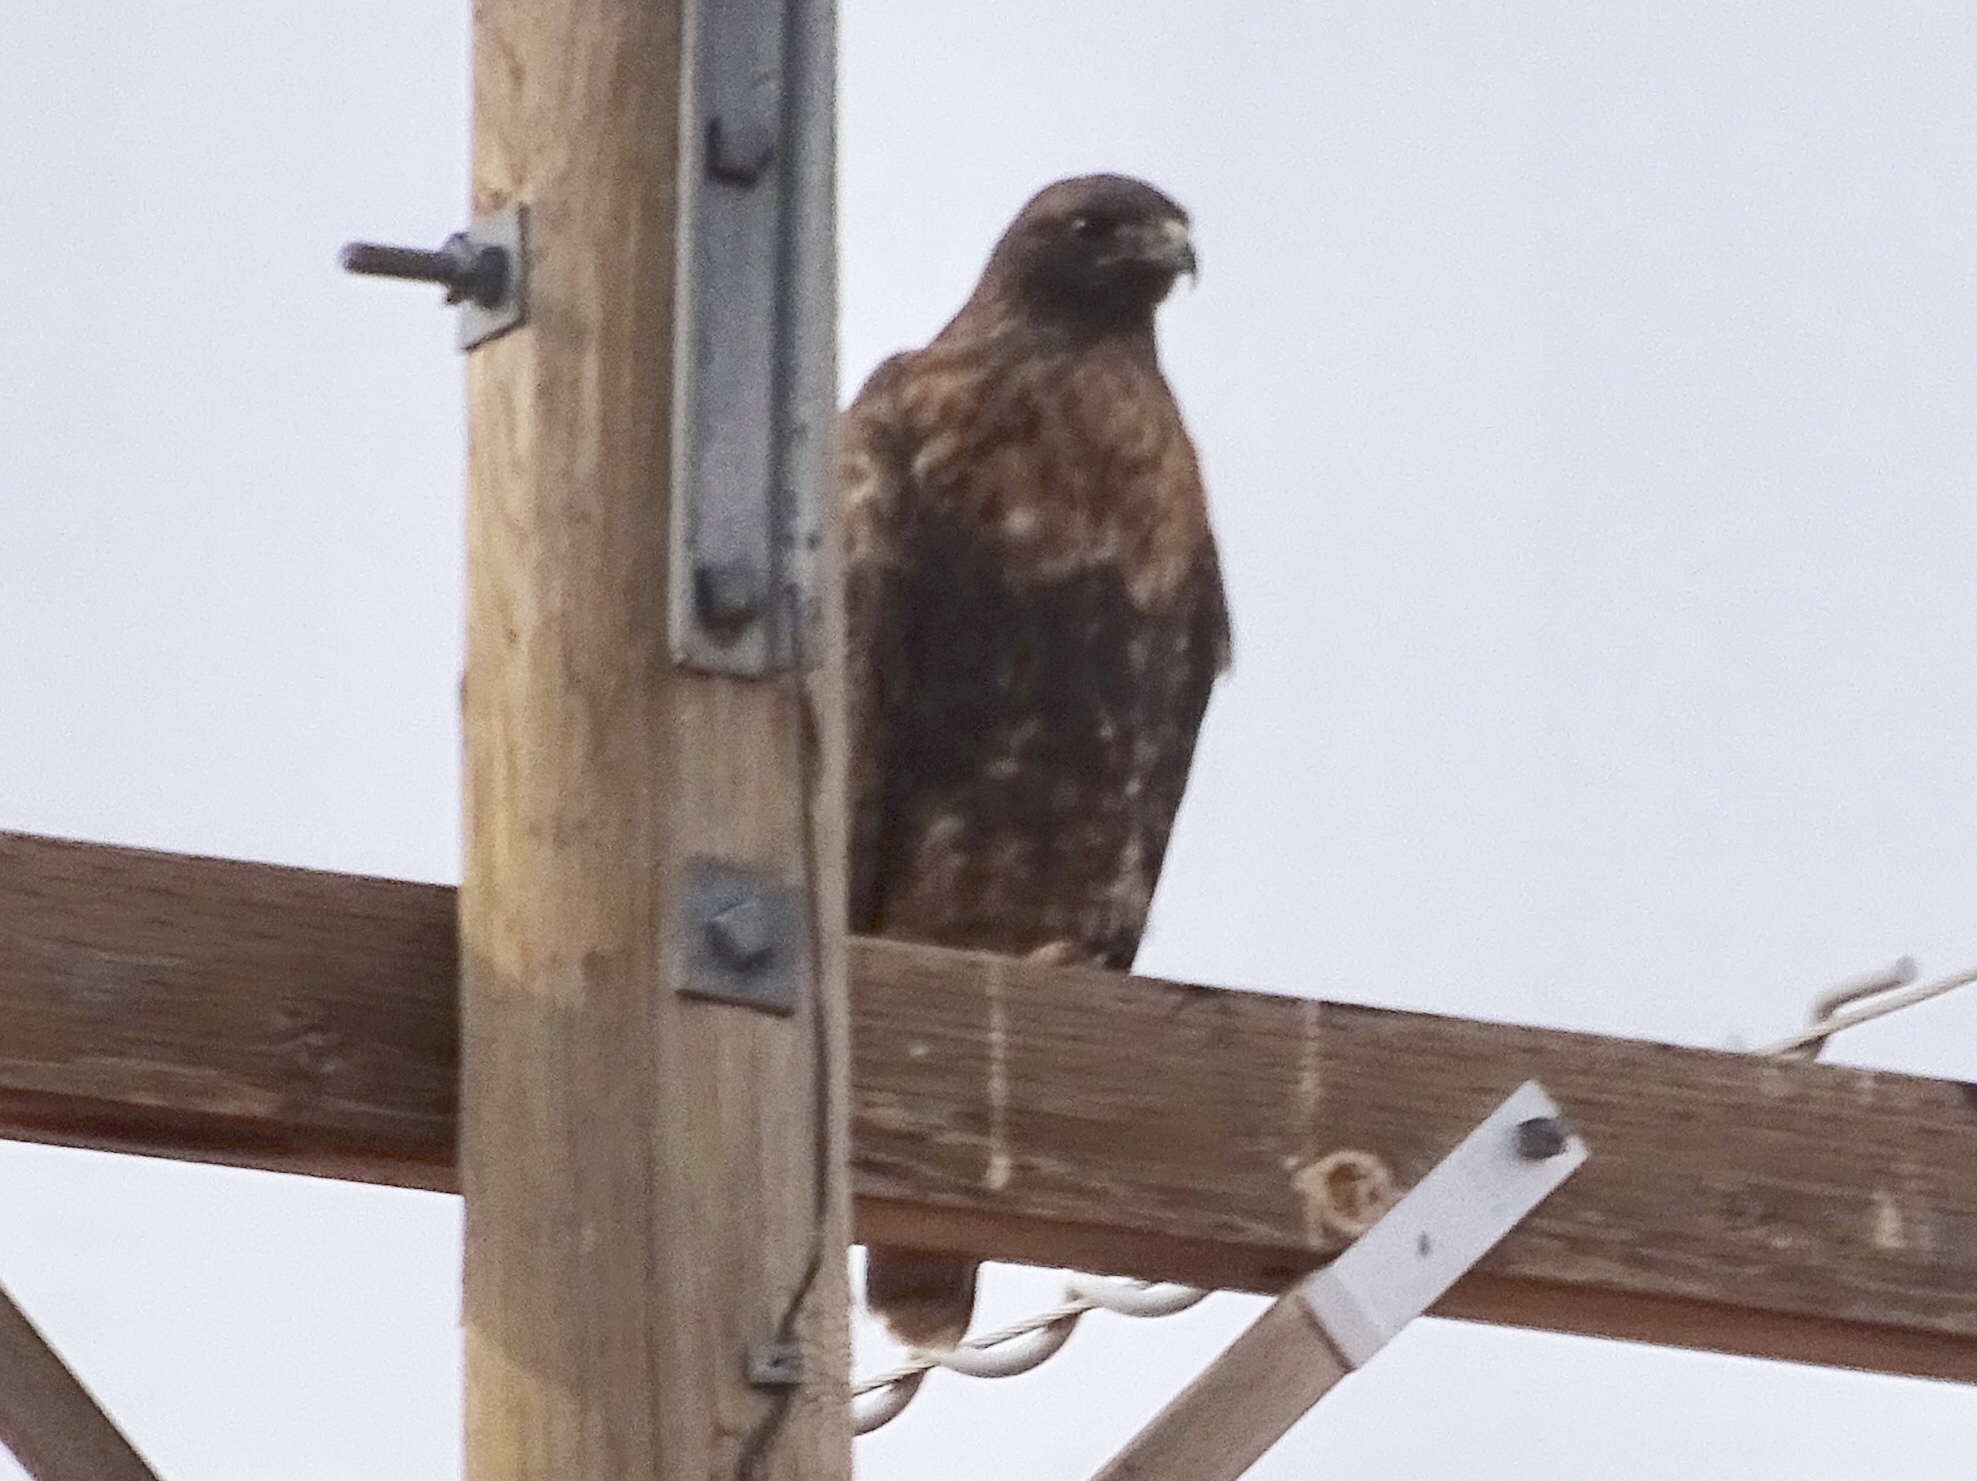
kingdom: Animalia
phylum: Chordata
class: Aves
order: Accipitriformes
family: Accipitridae
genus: Buteo
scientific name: Buteo jamaicensis
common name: Red-tailed hawk
